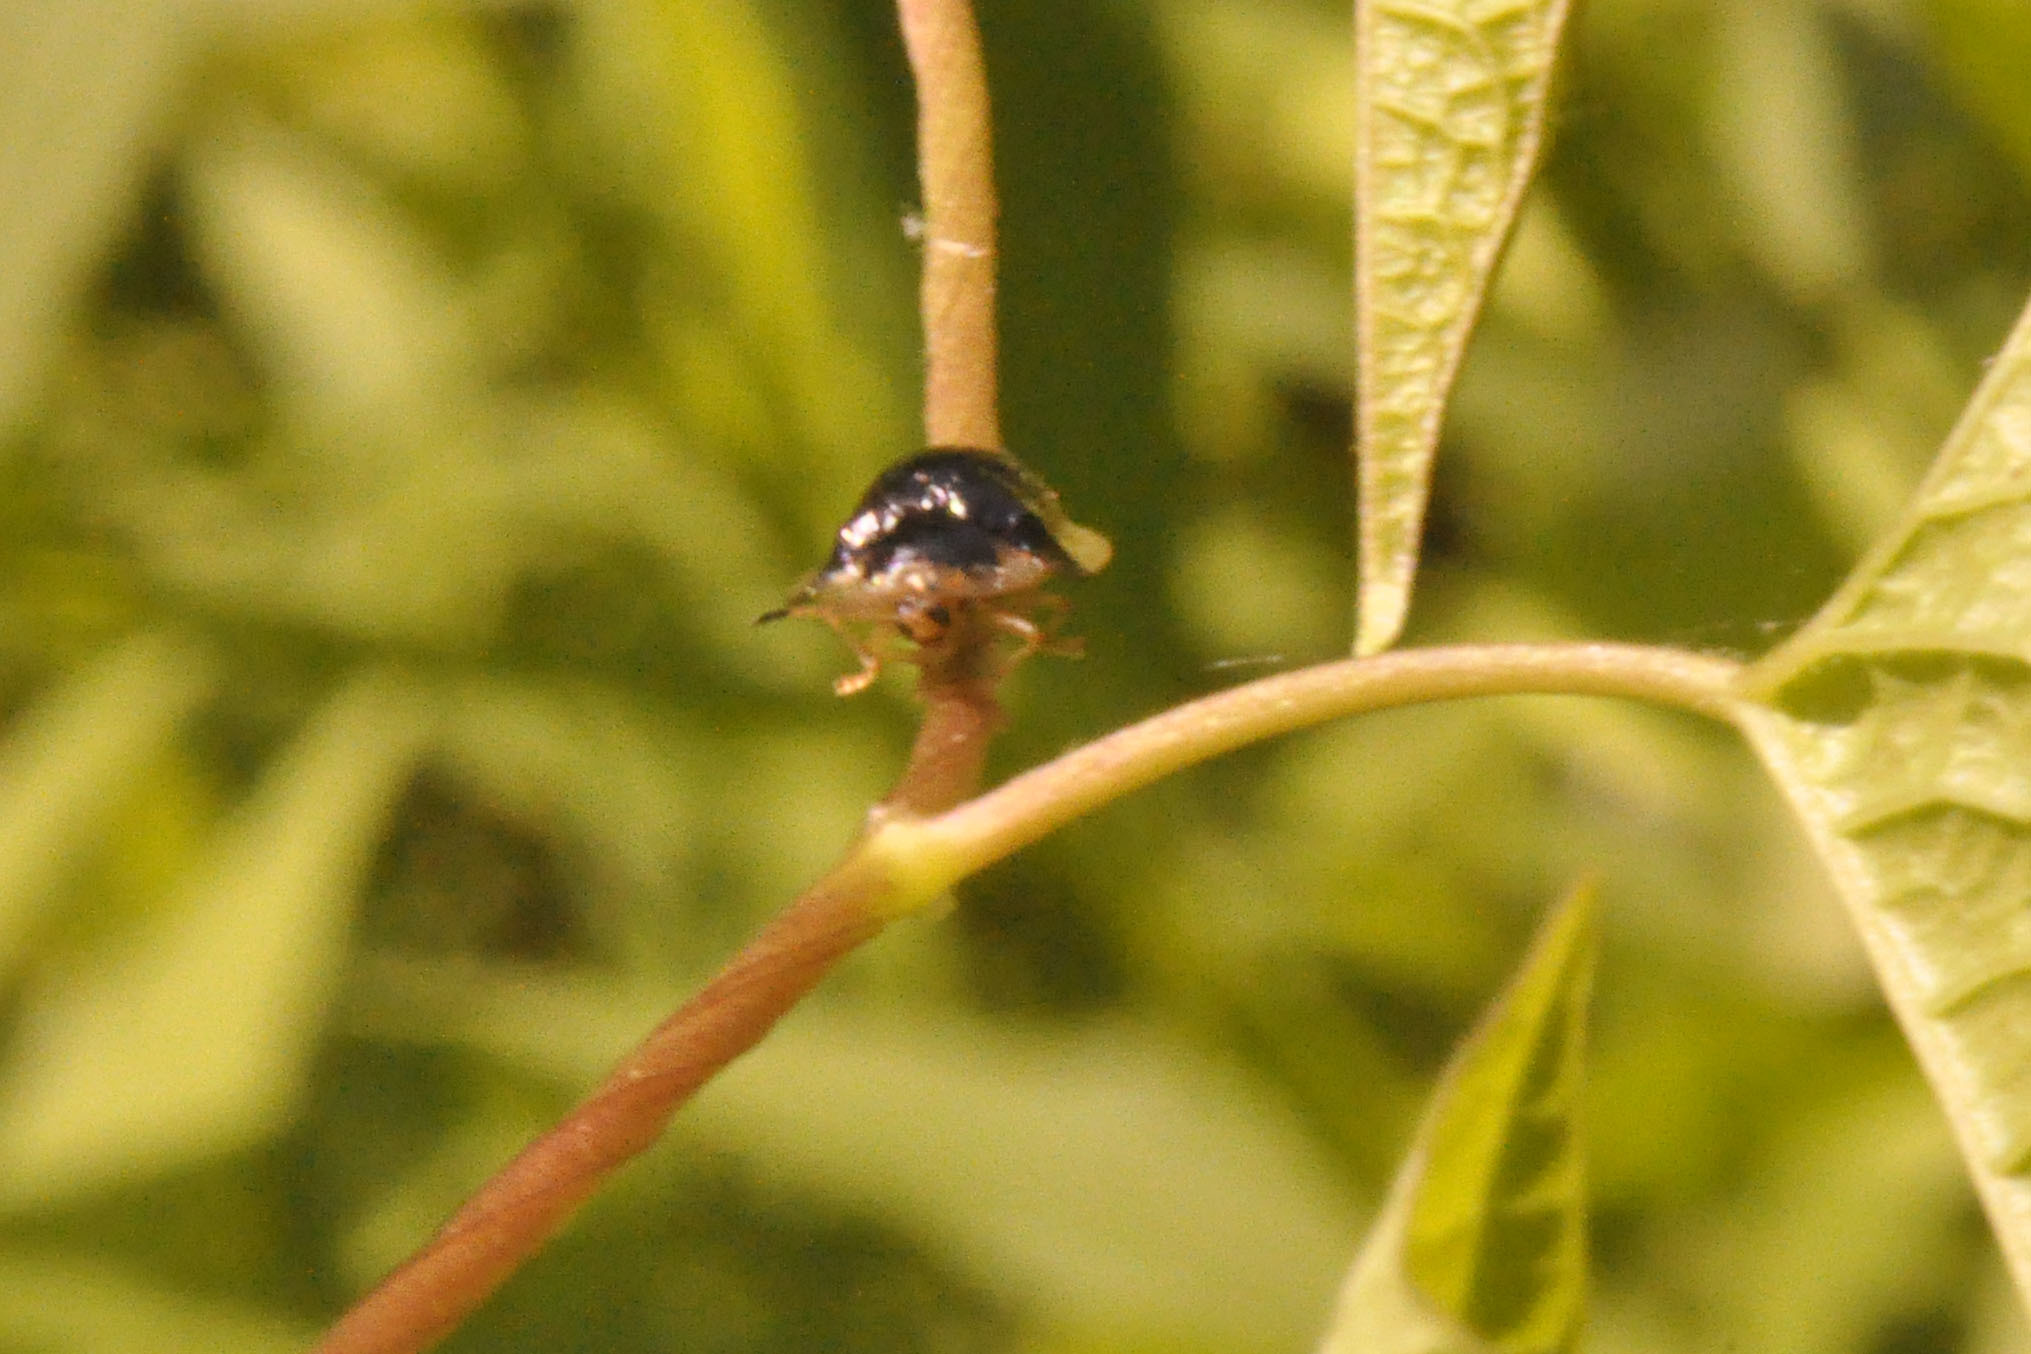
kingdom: Animalia
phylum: Arthropoda
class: Insecta
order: Coleoptera
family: Chrysomelidae
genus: Deloyala
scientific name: Deloyala guttata
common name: Mottled tortoise beetle
